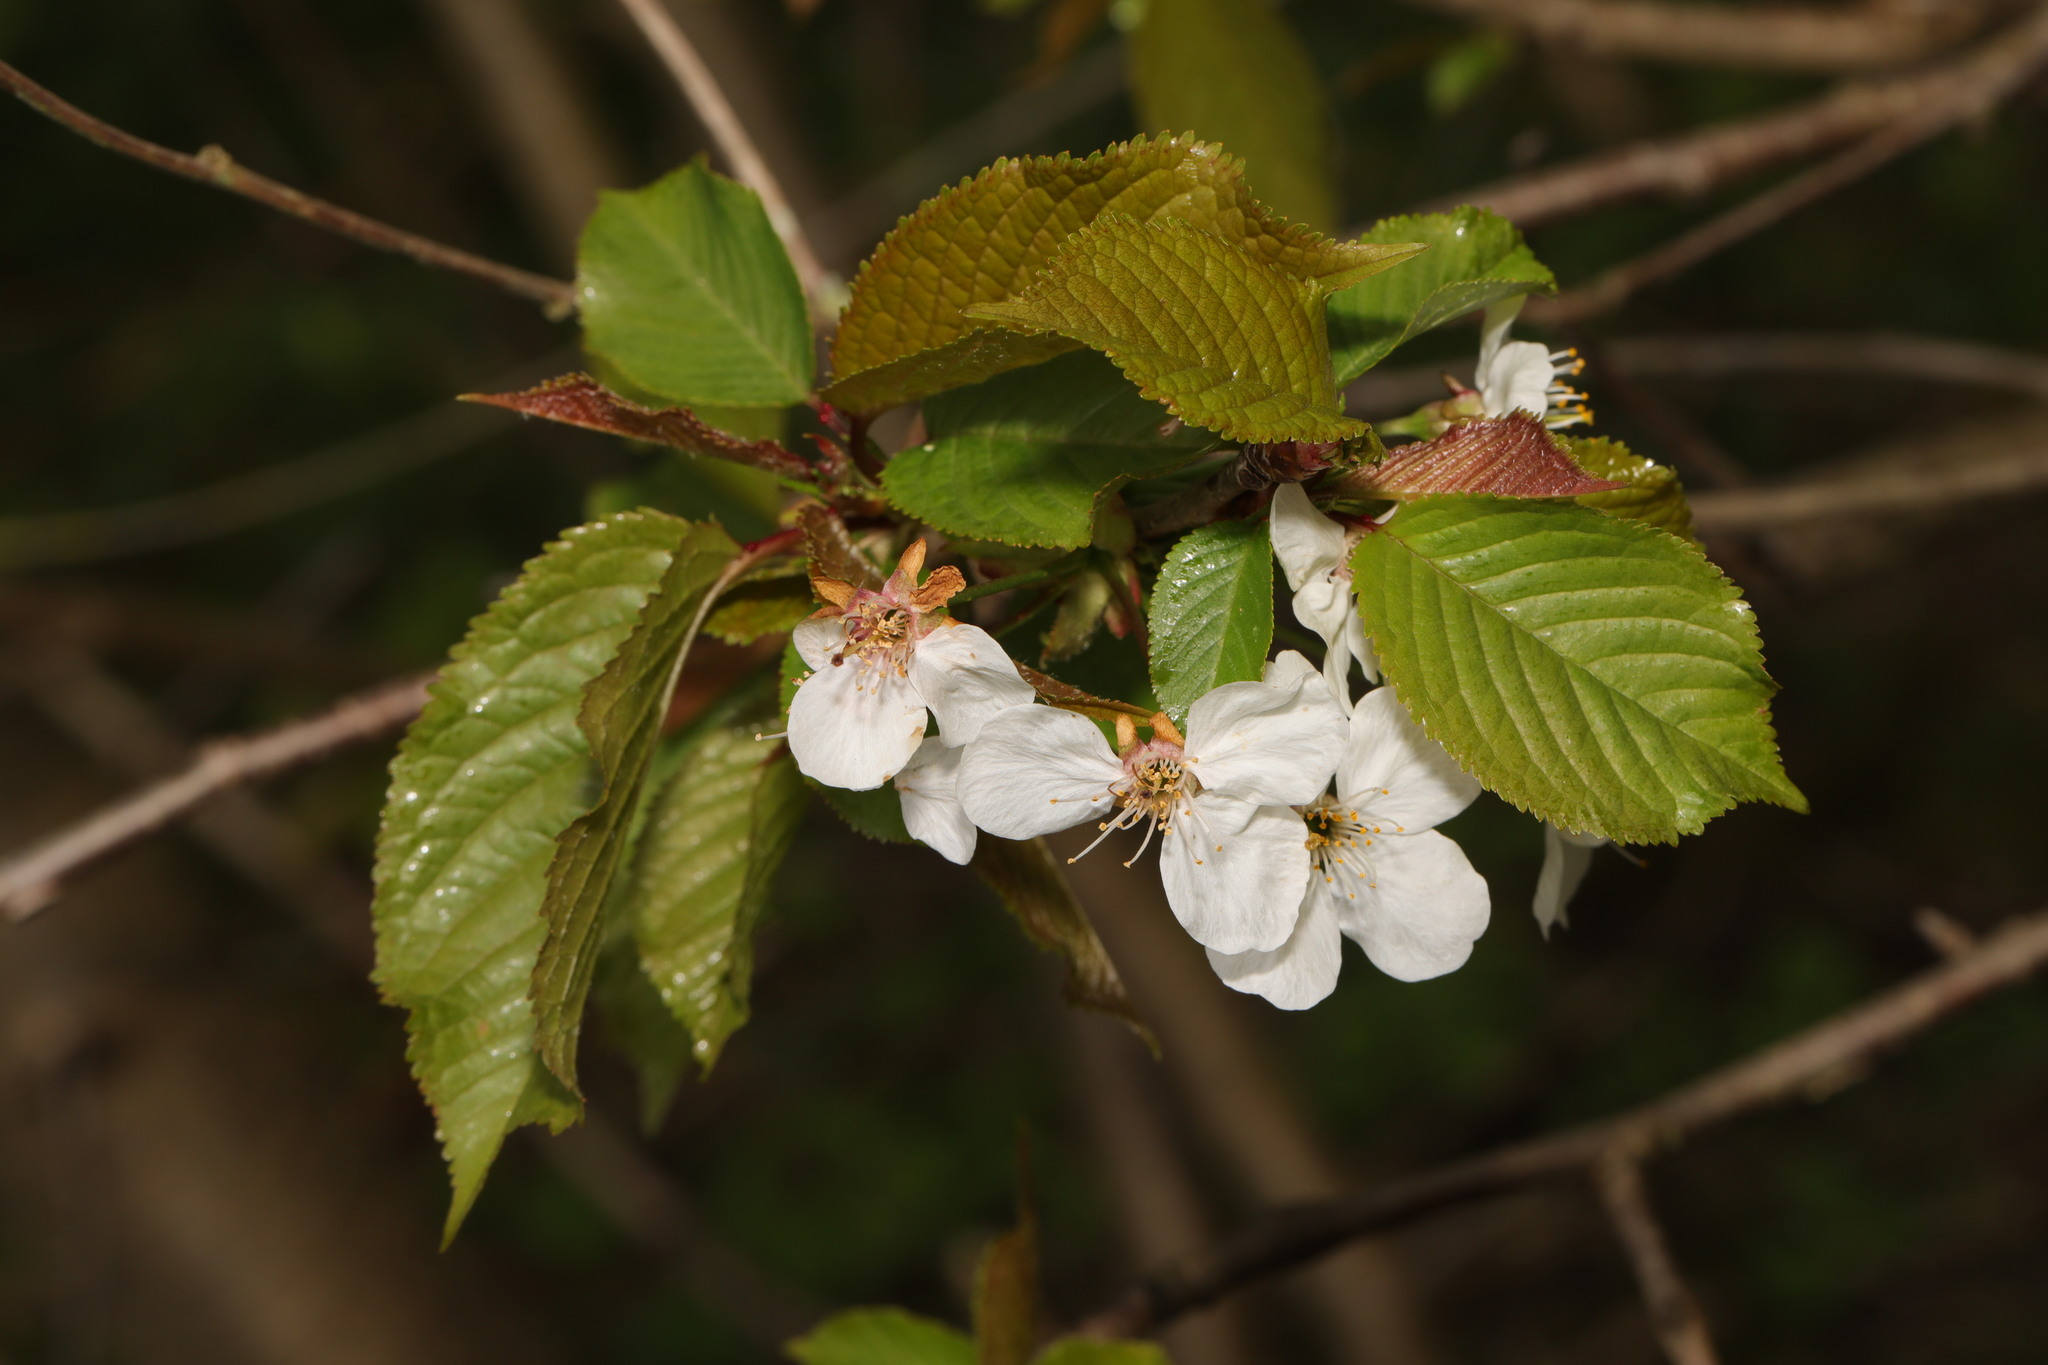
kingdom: Plantae
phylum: Tracheophyta
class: Magnoliopsida
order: Rosales
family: Rosaceae
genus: Prunus
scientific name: Prunus avium
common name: Sweet cherry
